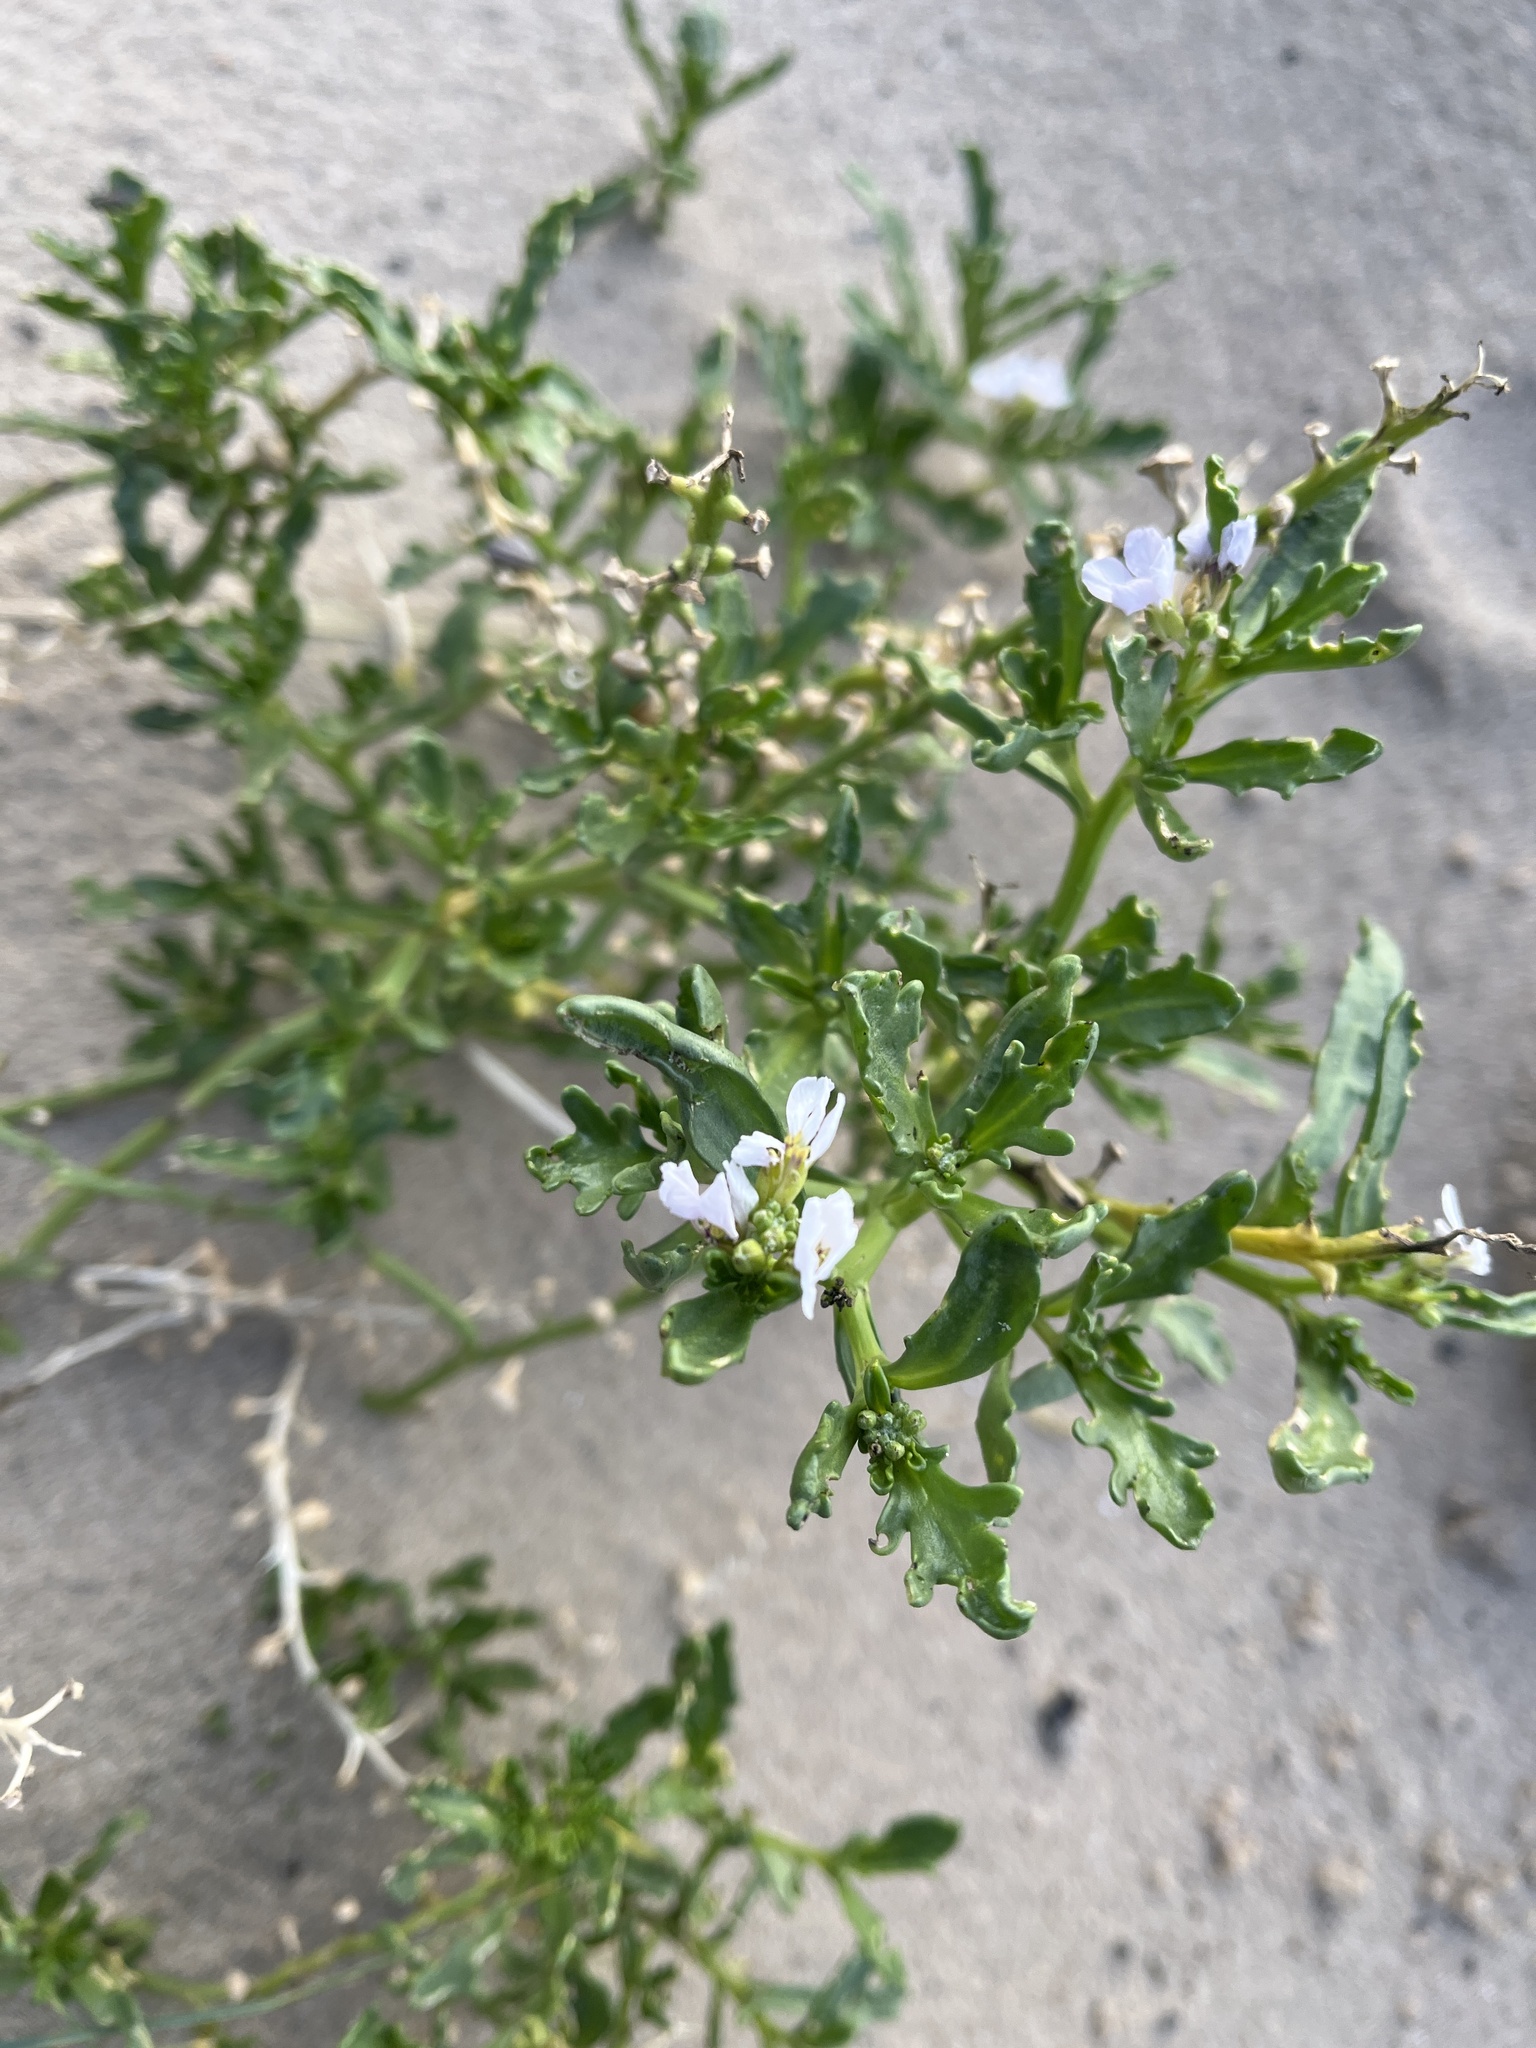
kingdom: Plantae
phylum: Tracheophyta
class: Magnoliopsida
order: Brassicales
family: Brassicaceae
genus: Cakile
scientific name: Cakile maritima
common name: Sea rocket
